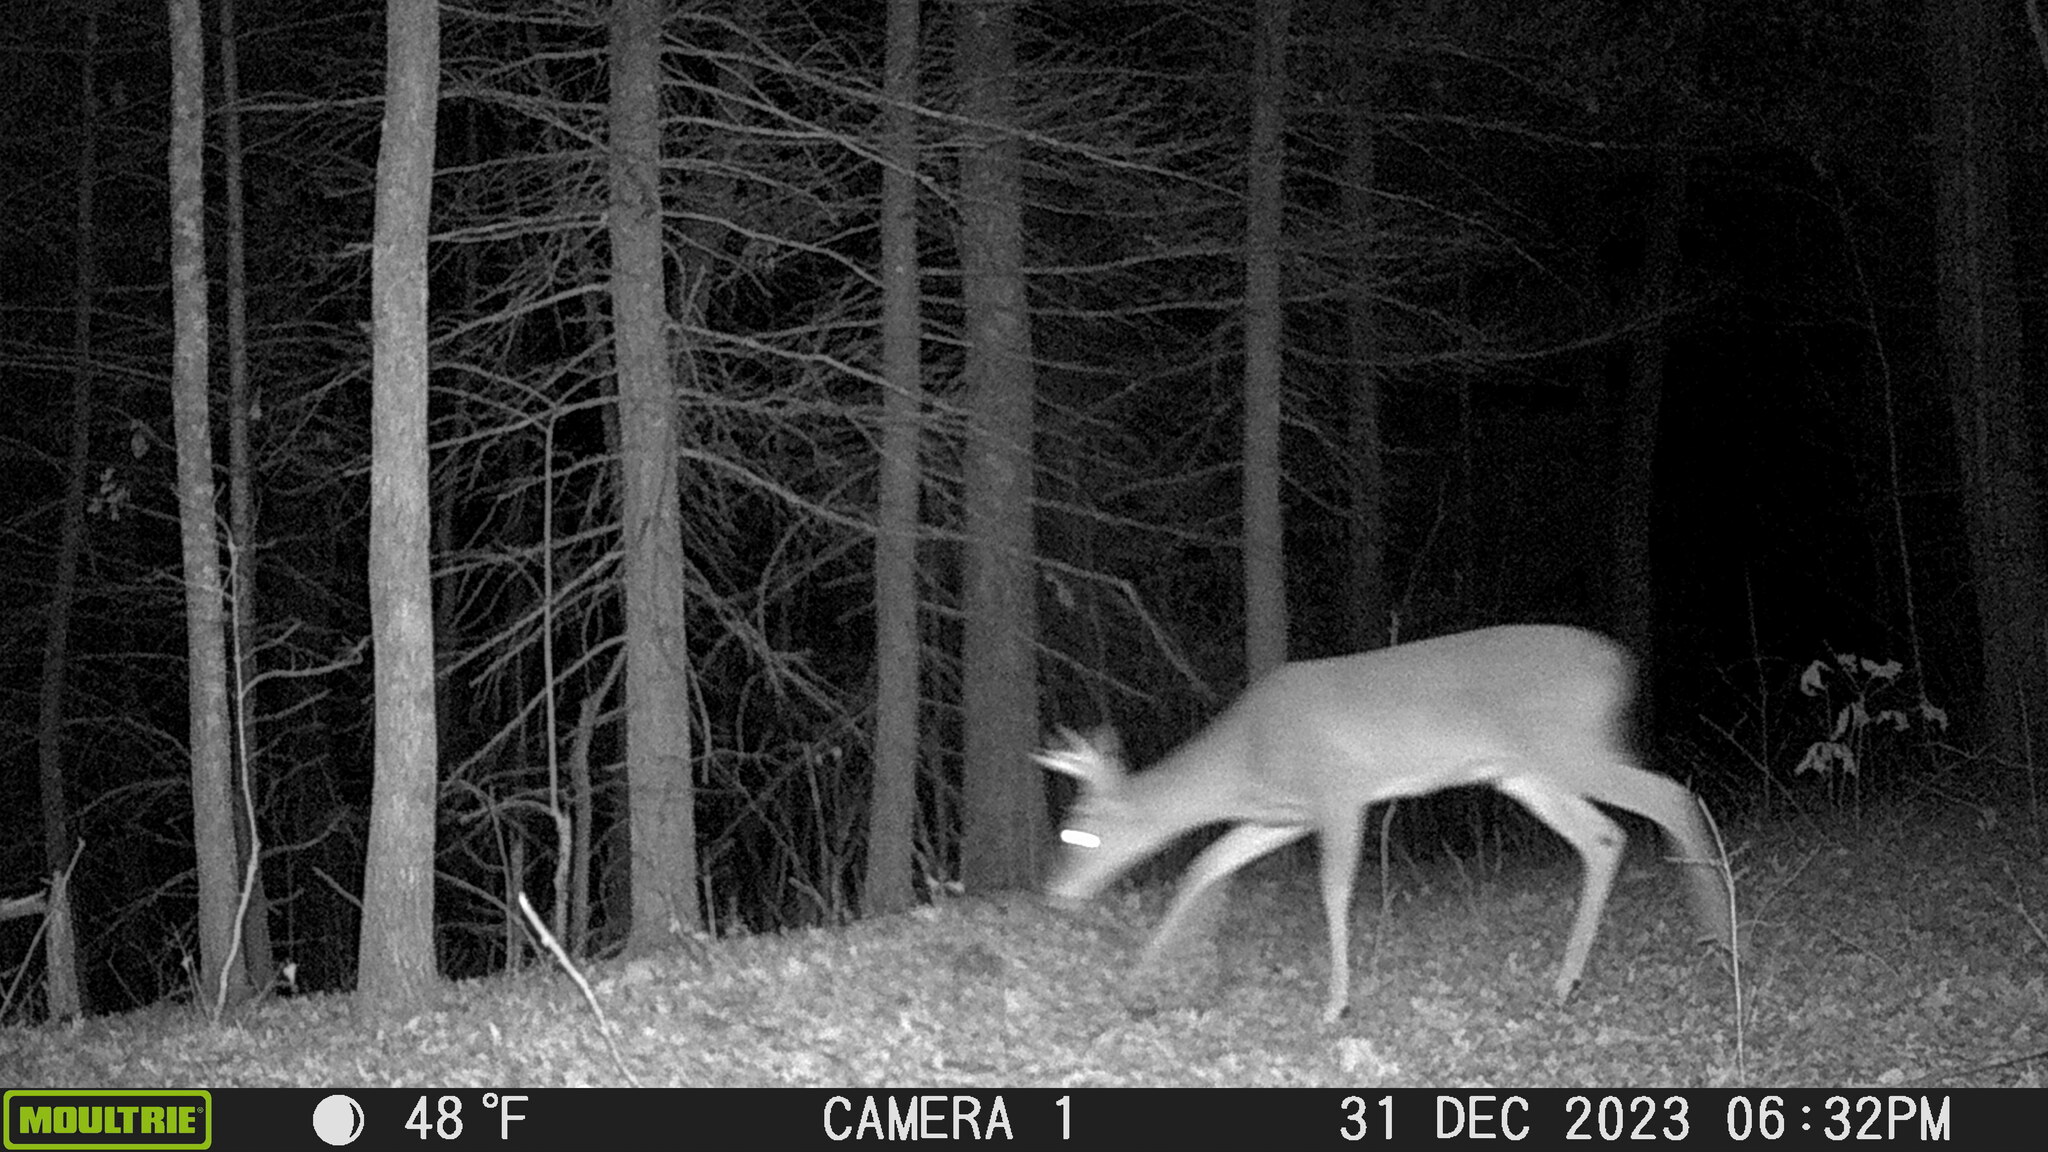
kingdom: Animalia
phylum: Chordata
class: Mammalia
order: Artiodactyla
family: Cervidae
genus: Odocoileus
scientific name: Odocoileus virginianus
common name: White-tailed deer
